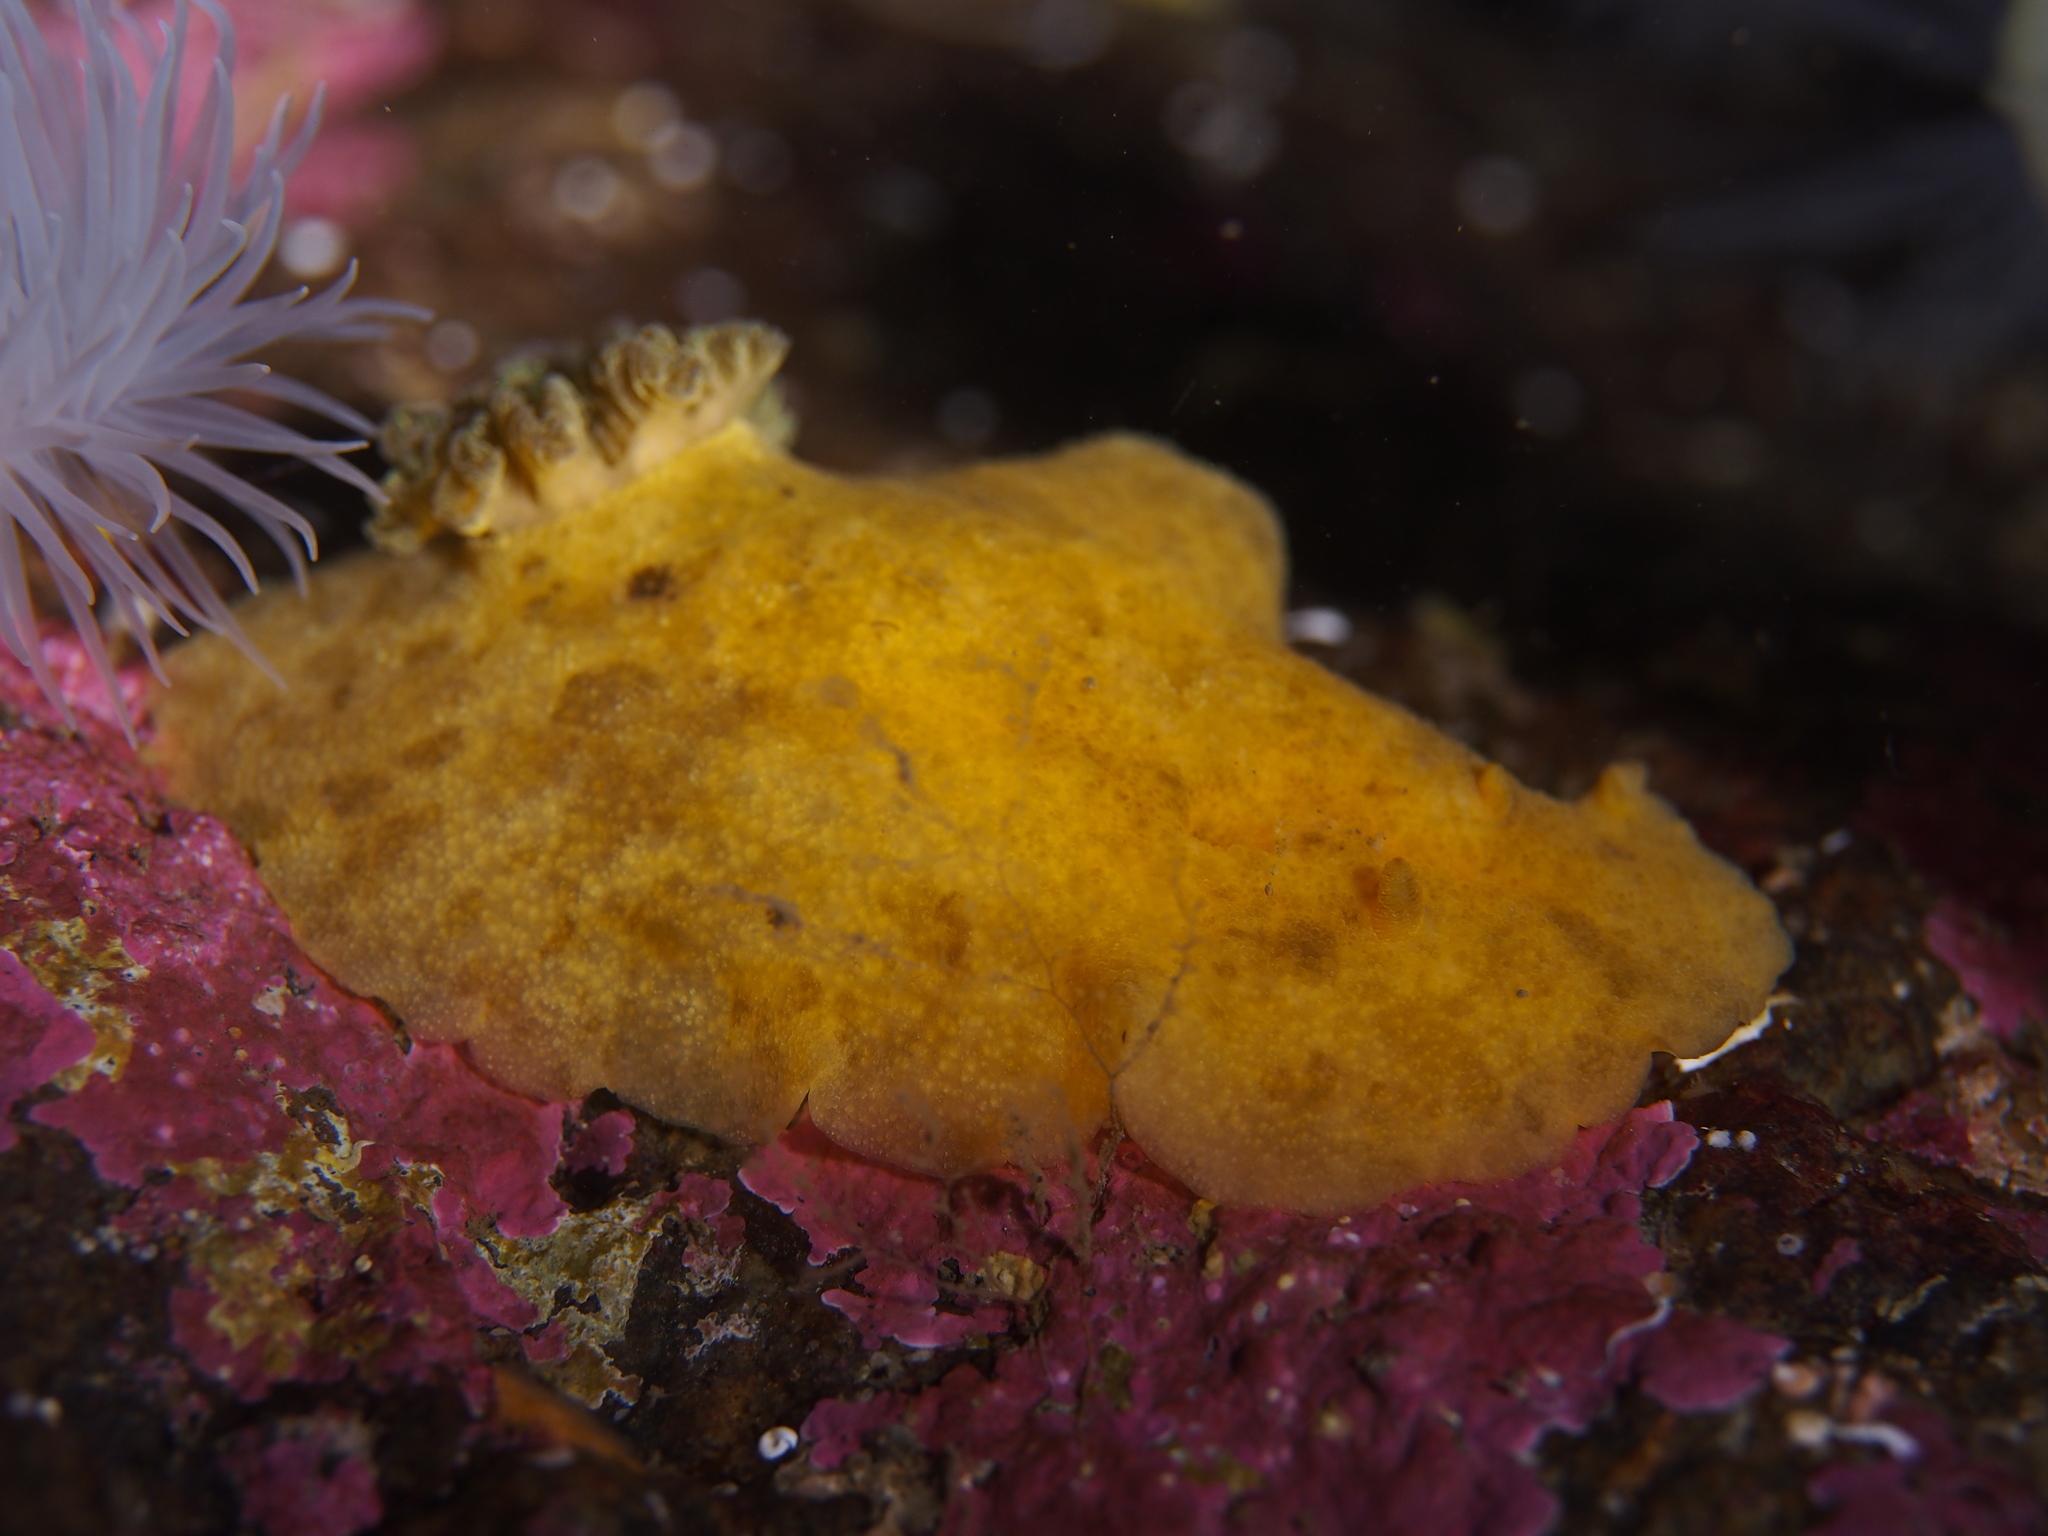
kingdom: Animalia
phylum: Mollusca
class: Gastropoda
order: Nudibranchia
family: Dorididae
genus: Doris
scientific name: Doris pseudoargus
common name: Sea lemon
